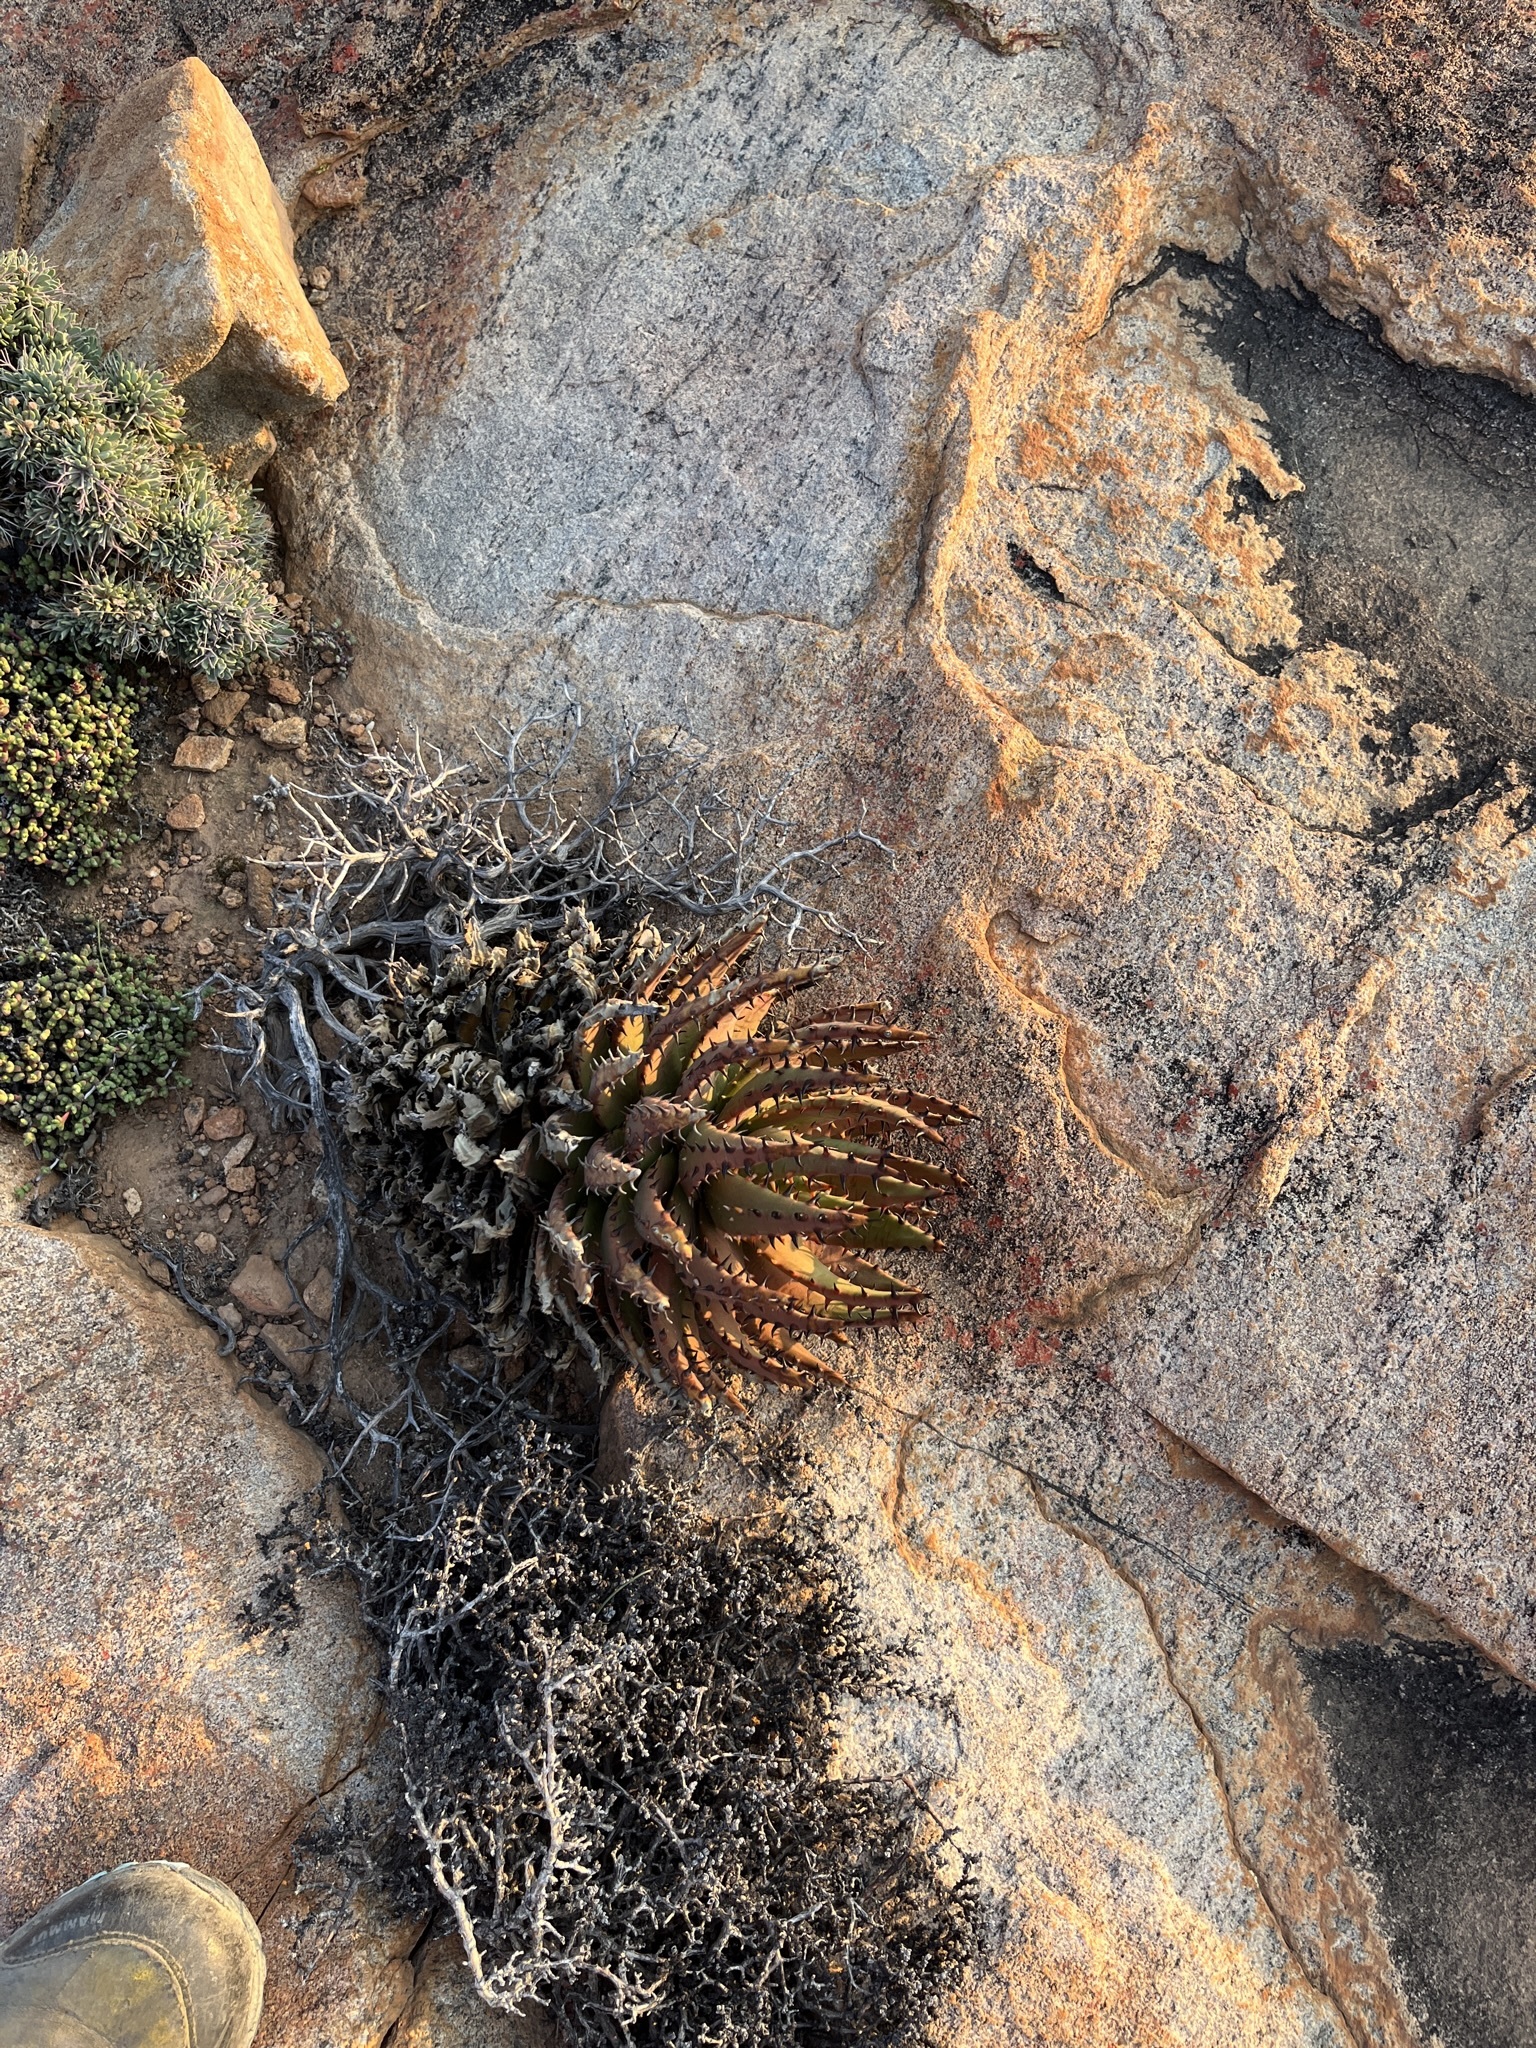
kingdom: Plantae
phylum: Tracheophyta
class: Liliopsida
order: Asparagales
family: Asphodelaceae
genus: Aloe
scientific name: Aloe melanacantha
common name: Black thorn aloe
